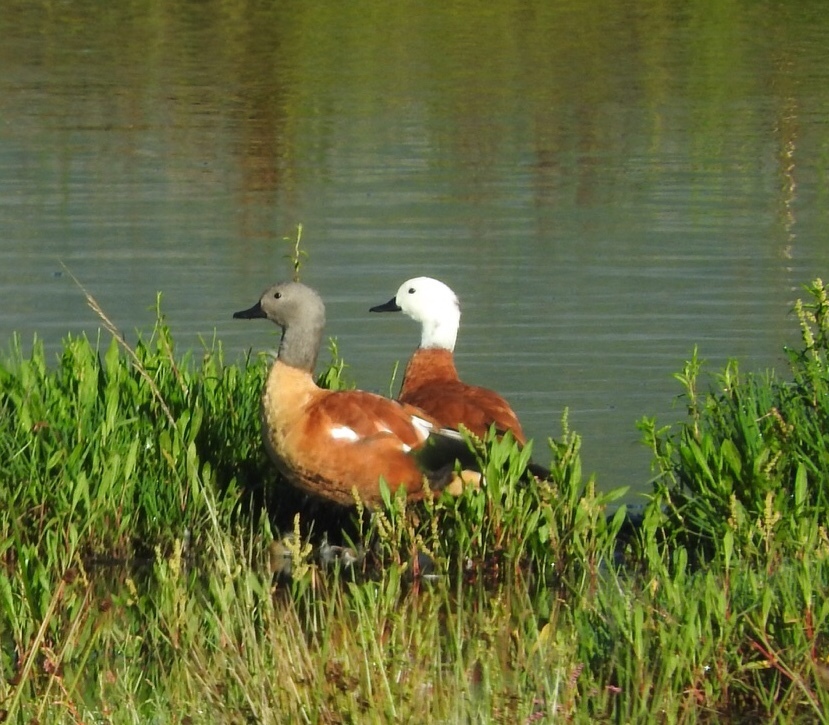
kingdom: Animalia
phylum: Chordata
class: Aves
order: Anseriformes
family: Anatidae
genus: Tadorna
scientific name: Tadorna cana
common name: South african shelduck
